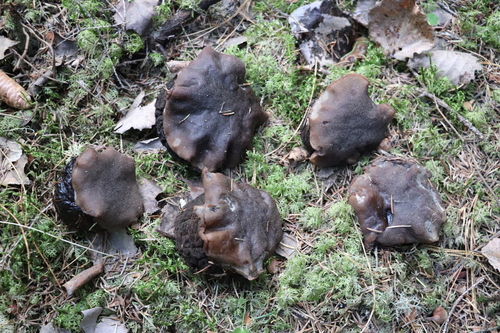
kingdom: Fungi
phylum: Ascomycota
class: Pezizomycetes
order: Pezizales
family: Sarcosomataceae
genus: Sarcosoma
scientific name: Sarcosoma globosum
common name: Charred-pancake cup
